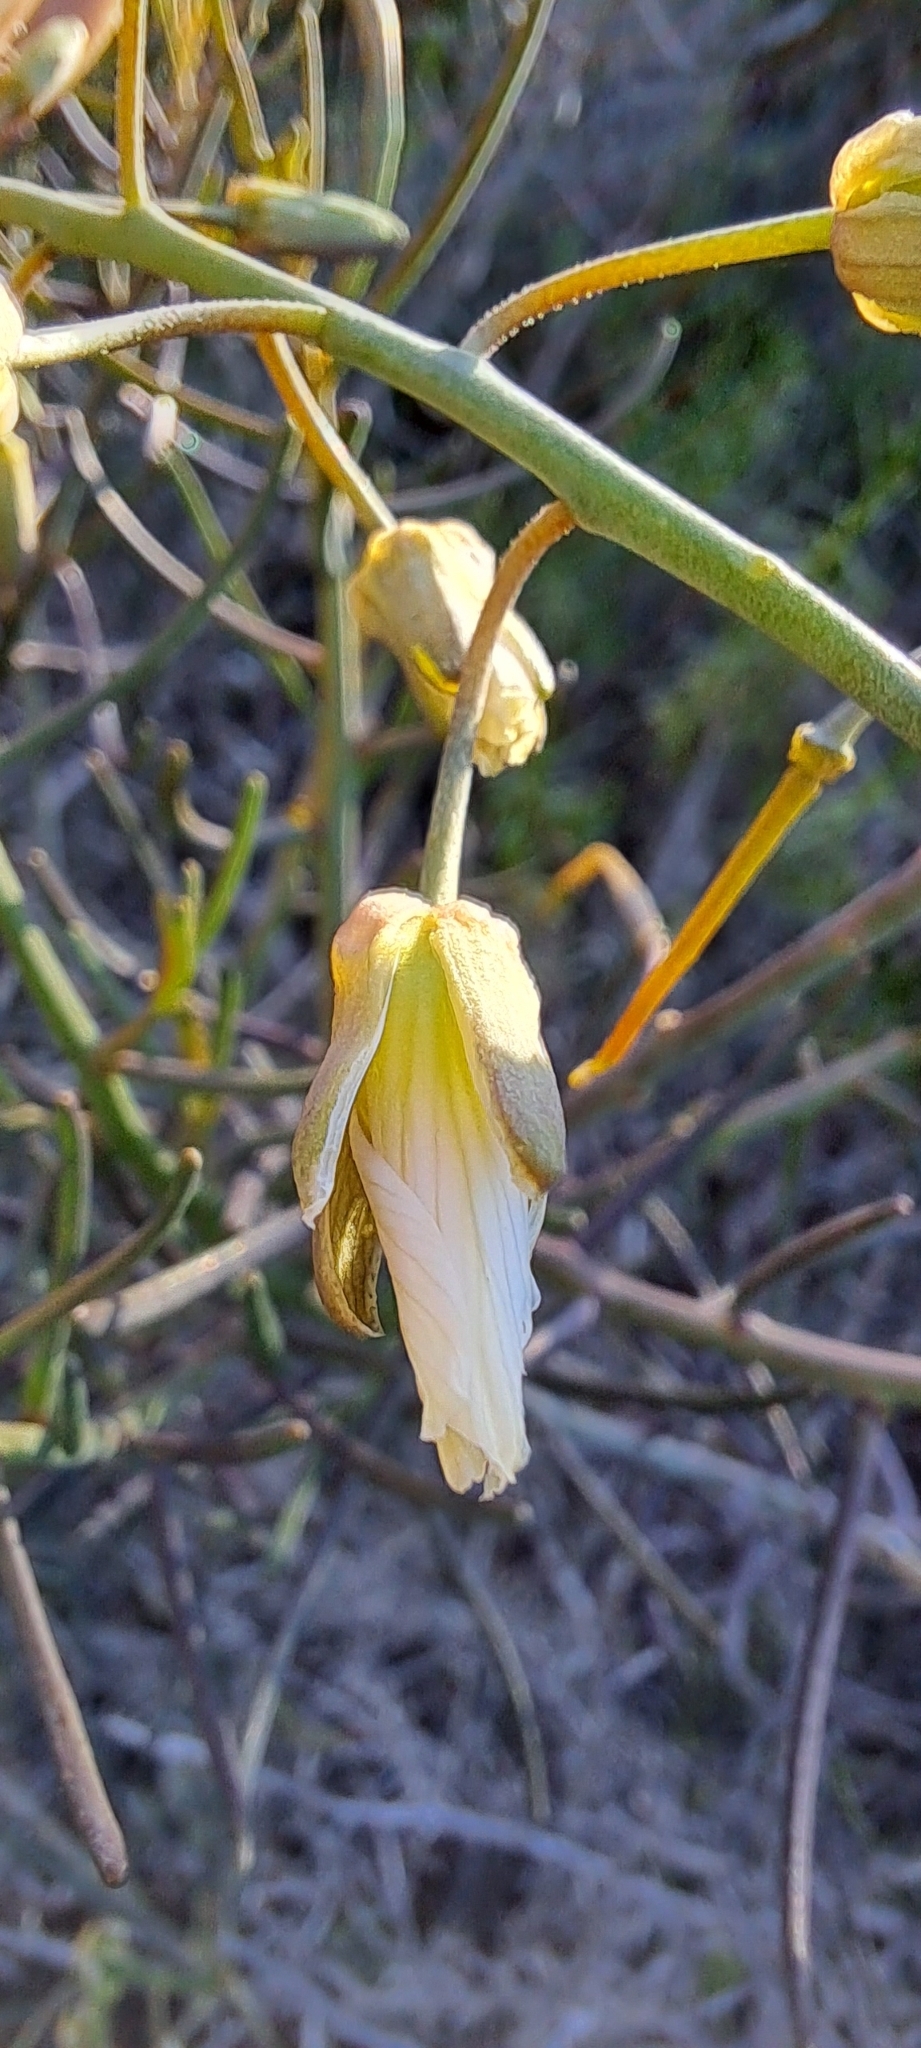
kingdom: Plantae
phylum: Tracheophyta
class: Magnoliopsida
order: Brassicales
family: Brassicaceae
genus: Heliophila
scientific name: Heliophila cornuta
